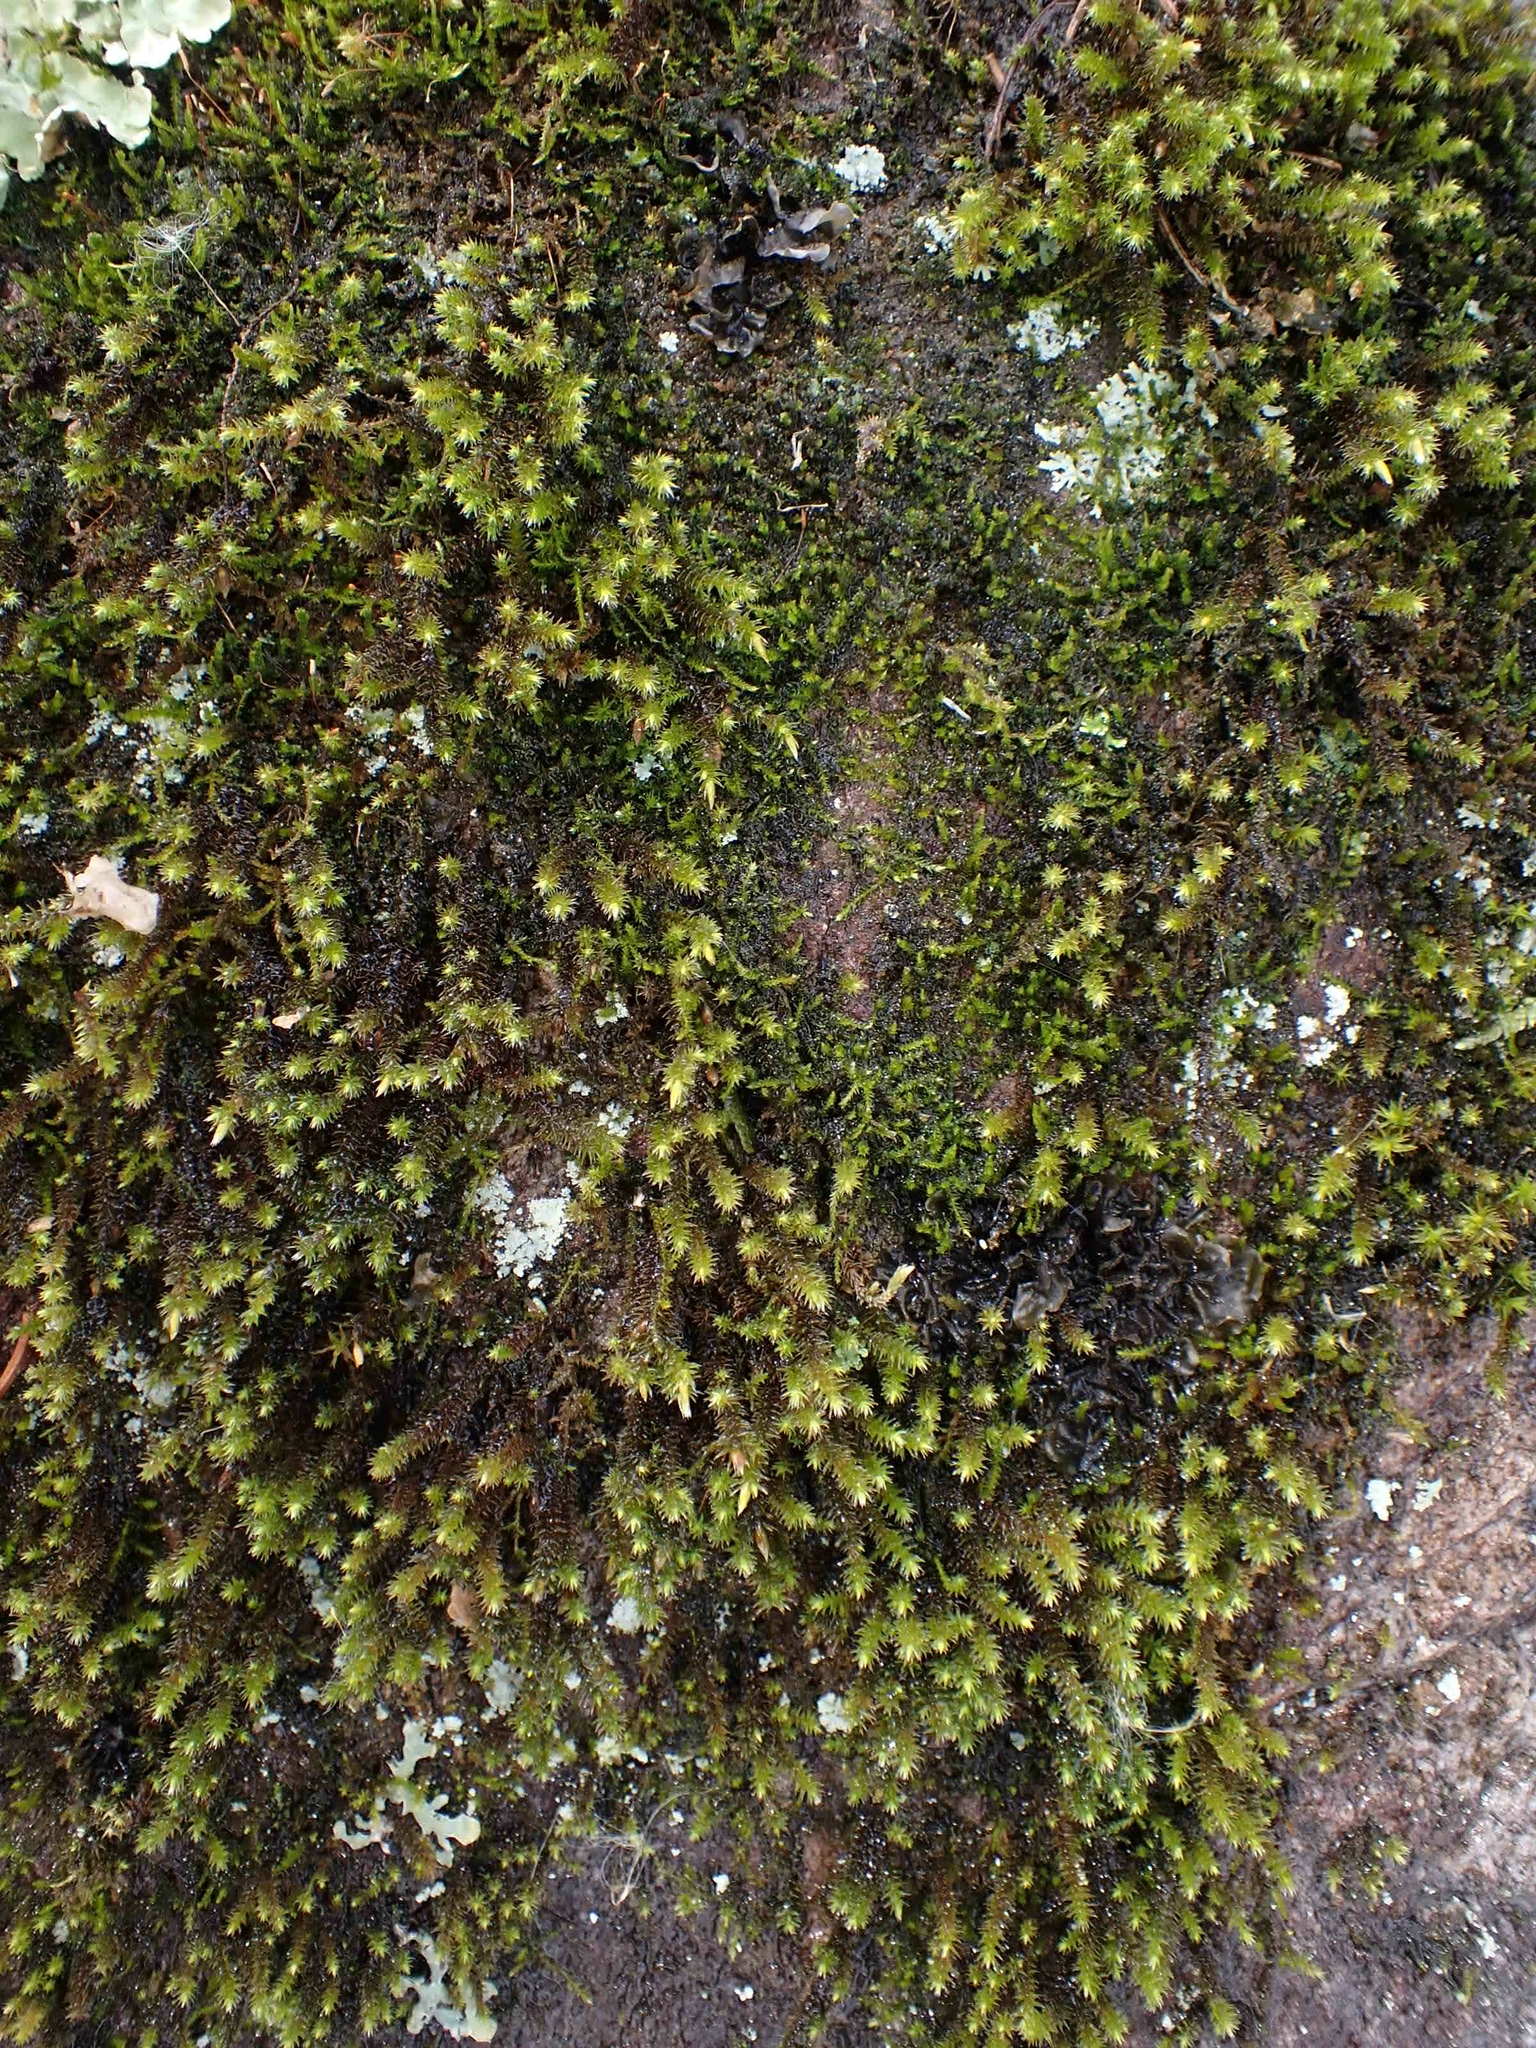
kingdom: Plantae
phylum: Bryophyta
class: Bryopsida
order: Hedwigiales
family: Hedwigiaceae
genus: Hedwigia
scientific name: Hedwigia ciliata
